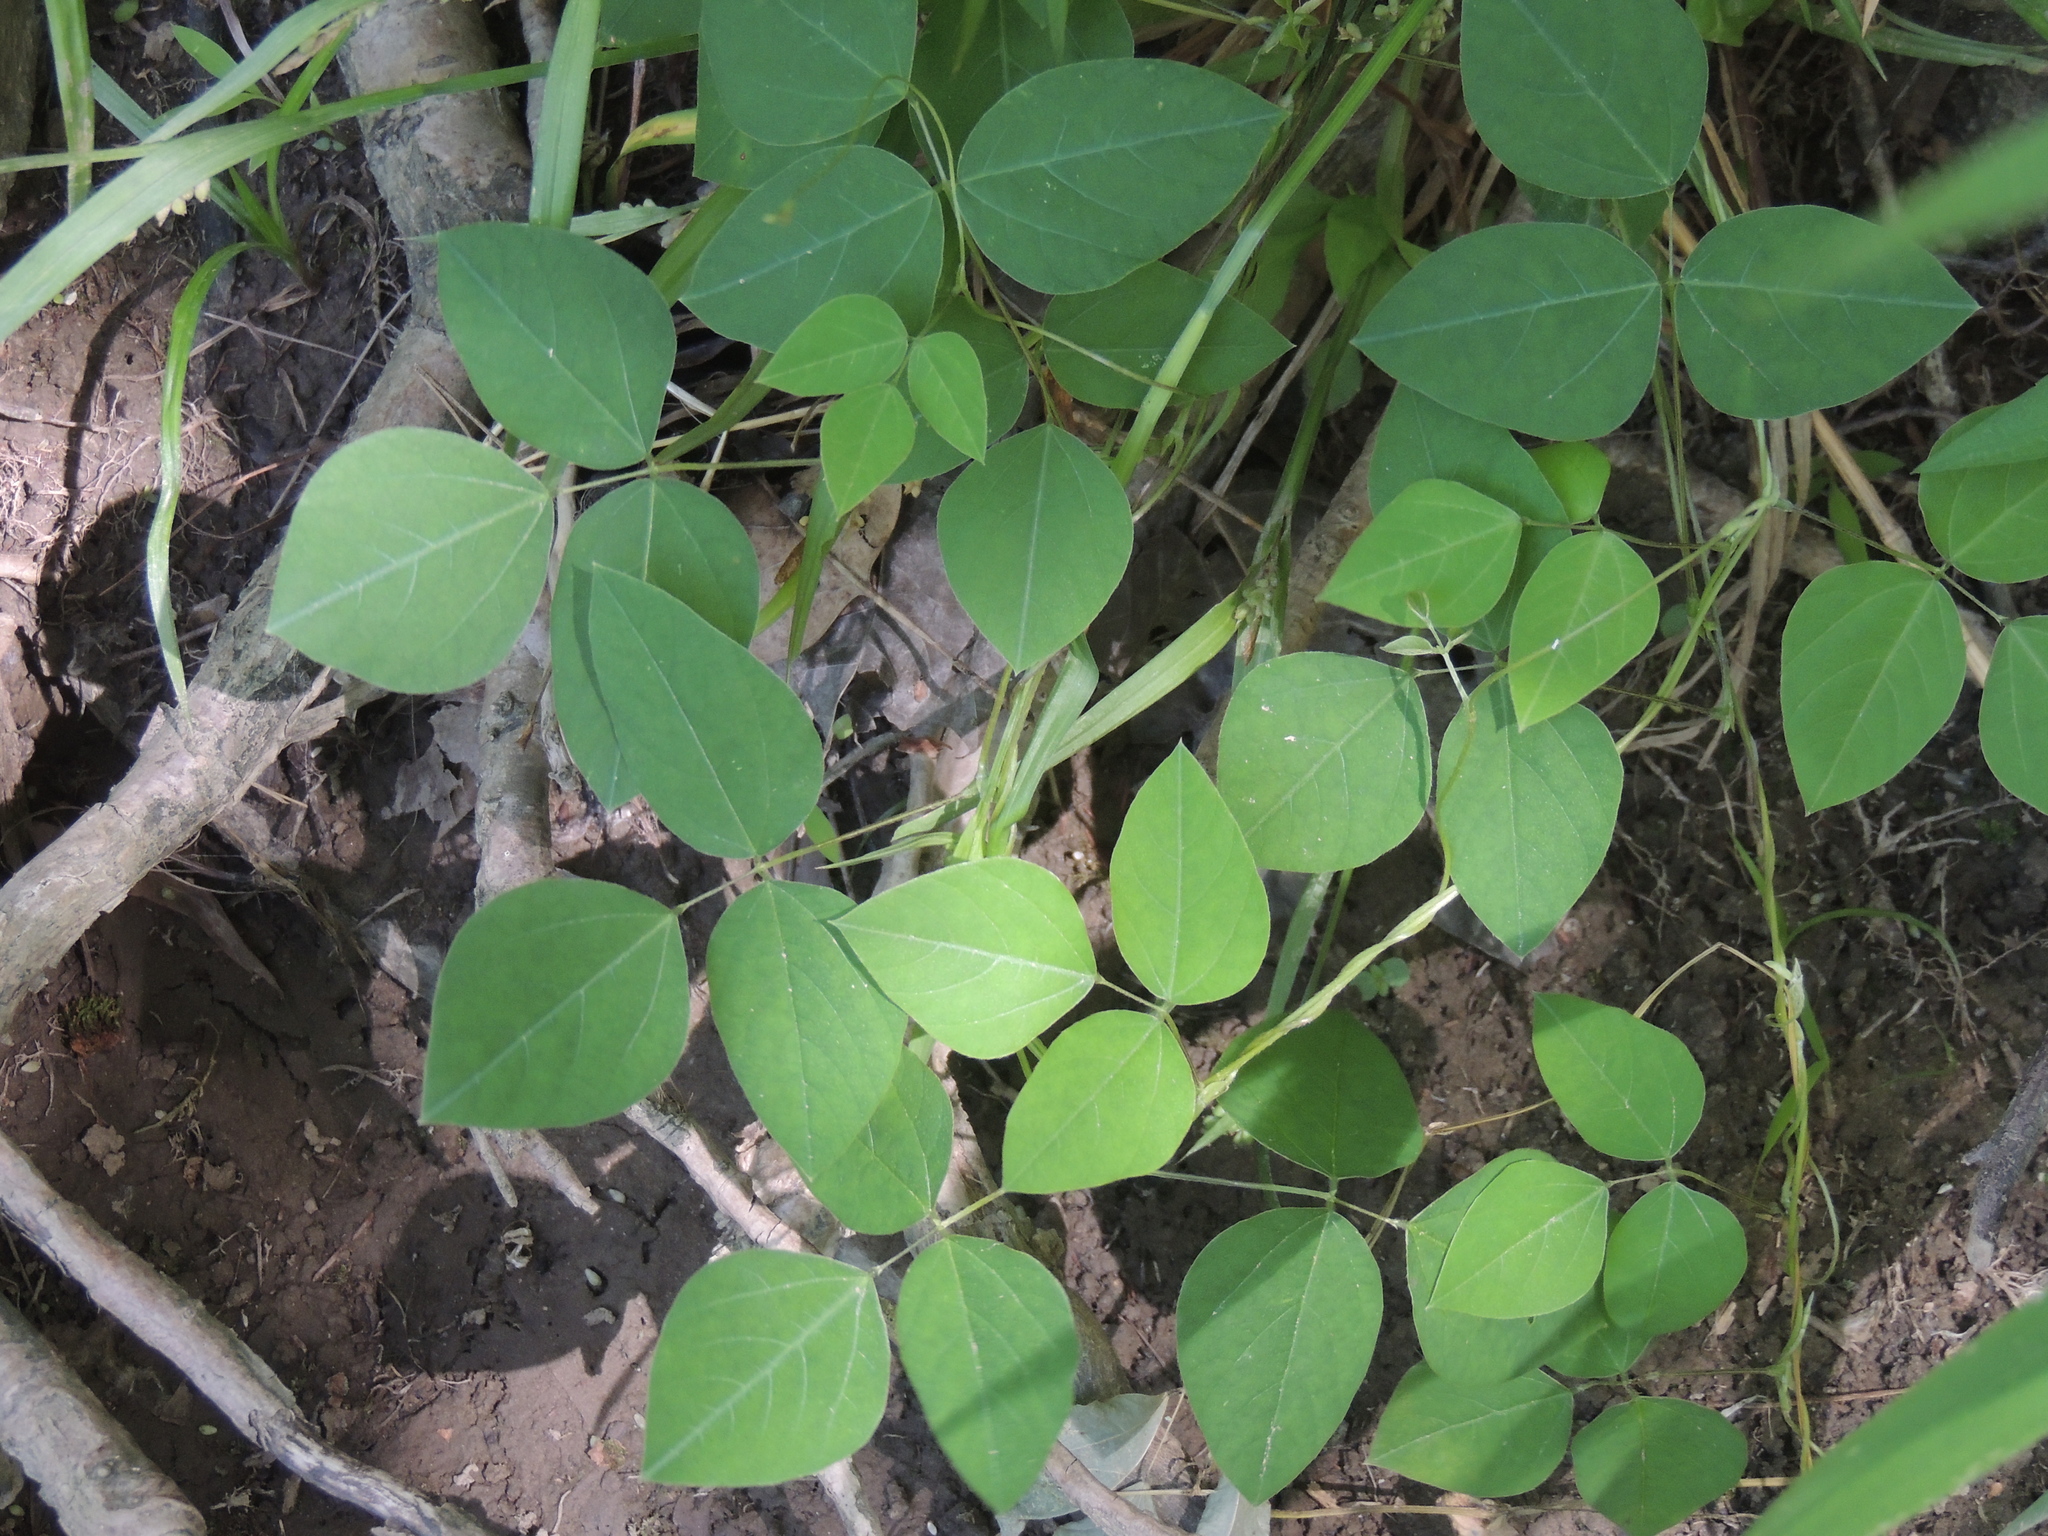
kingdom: Plantae
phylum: Tracheophyta
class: Magnoliopsida
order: Fabales
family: Fabaceae
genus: Amphicarpaea
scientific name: Amphicarpaea bracteata
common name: American hog peanut
